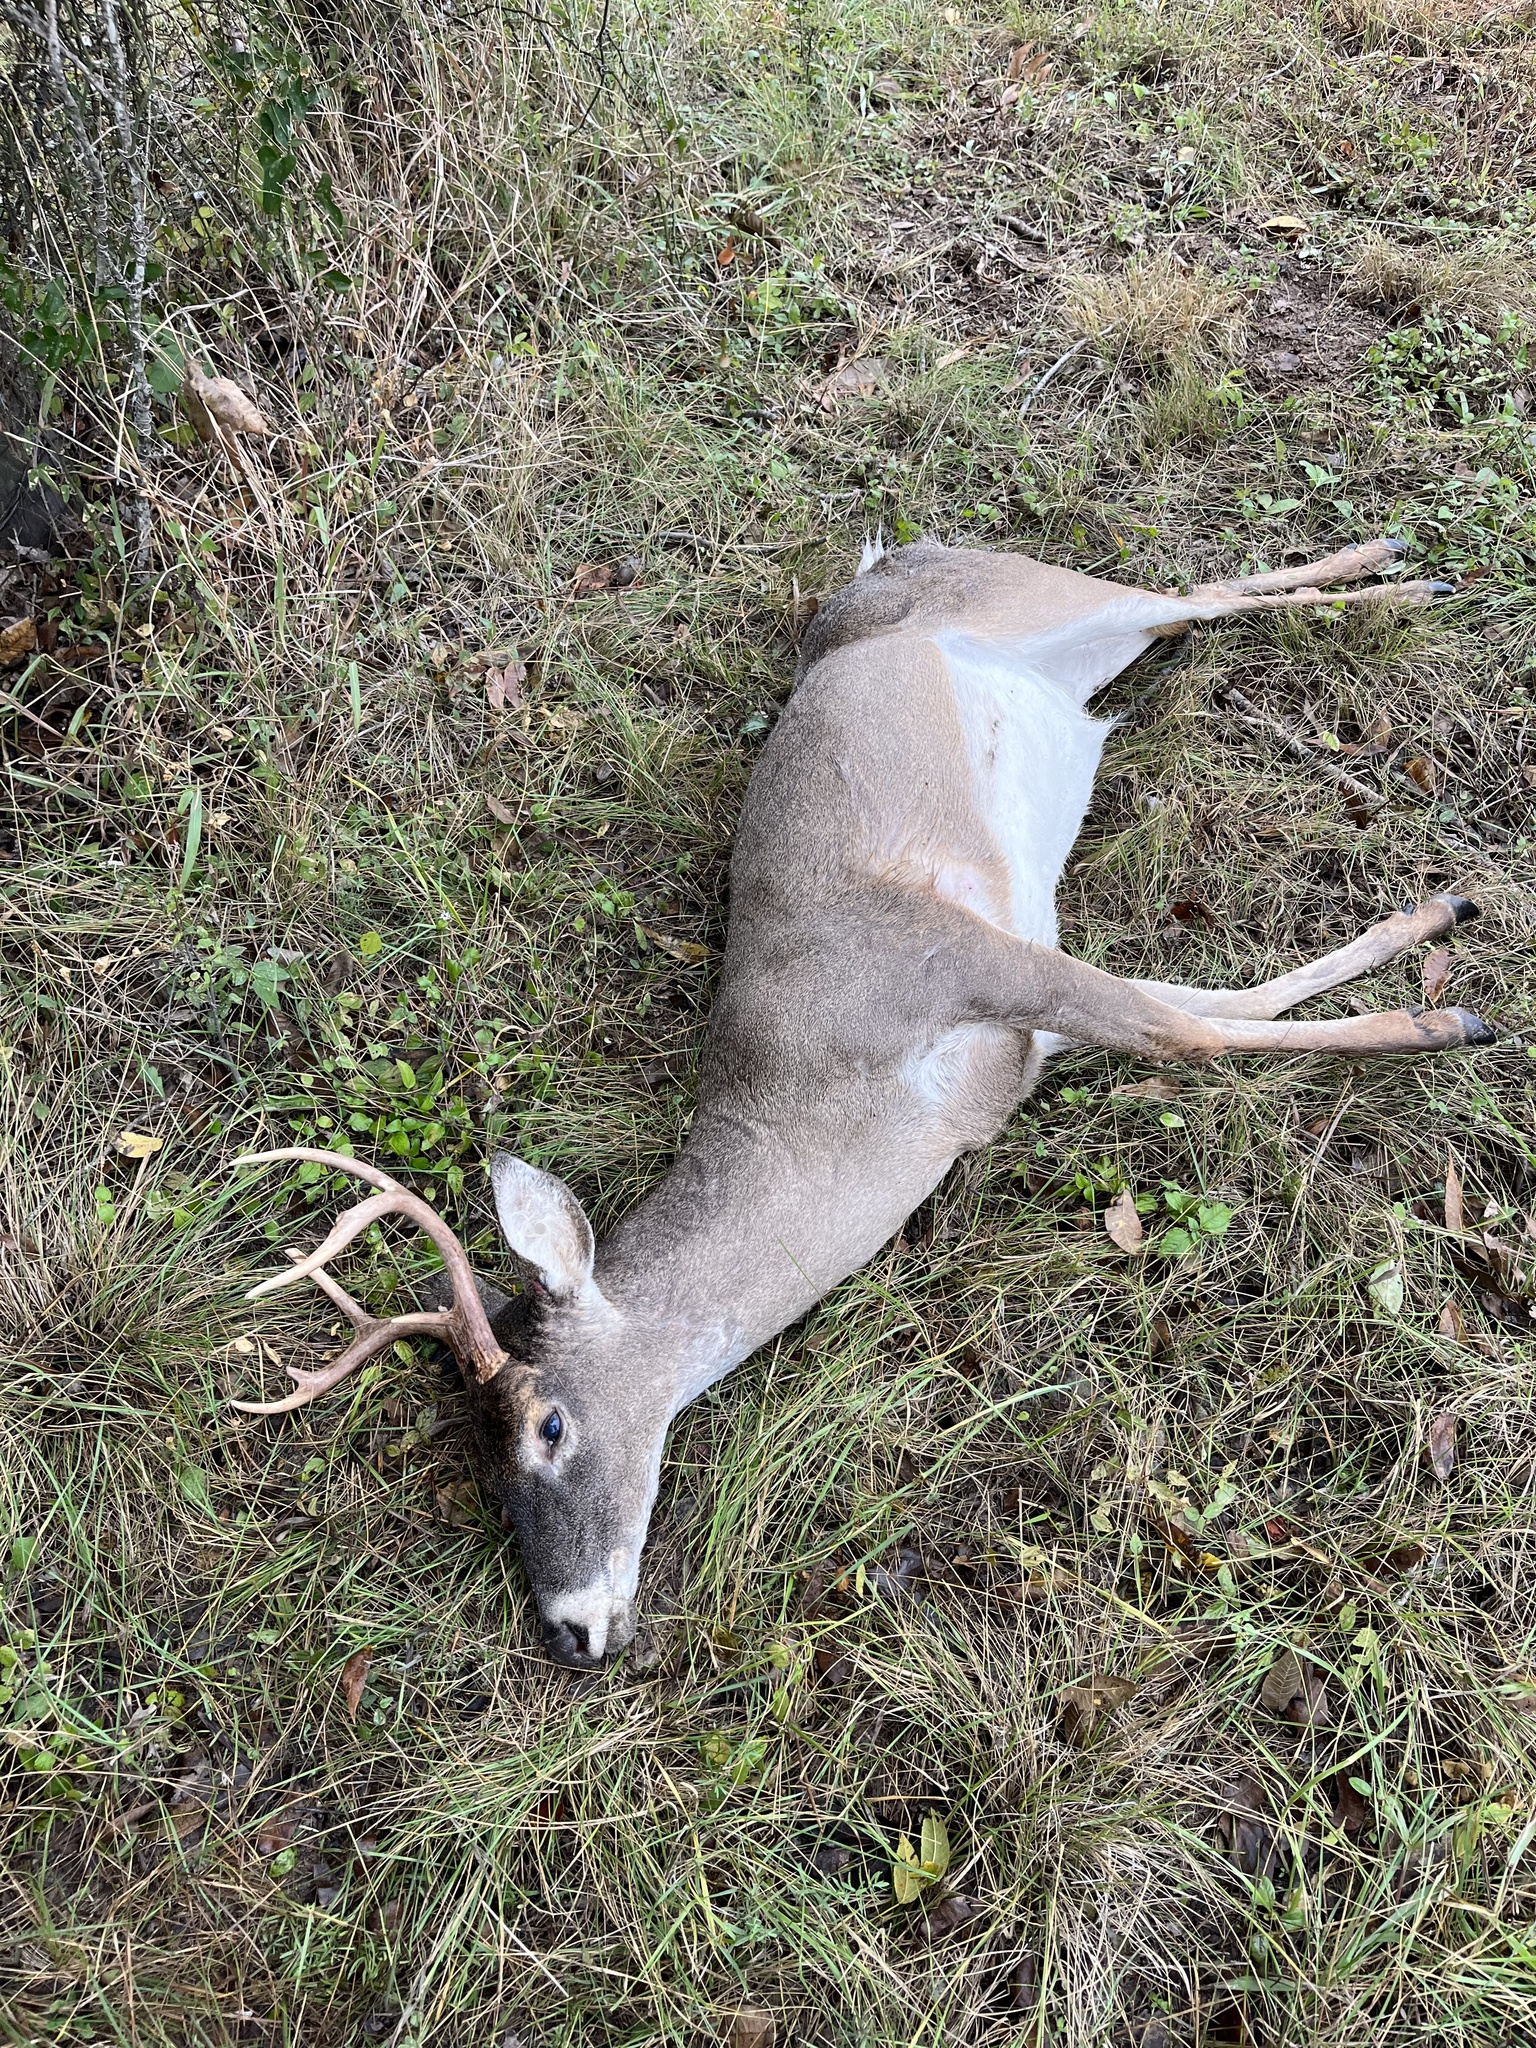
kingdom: Animalia
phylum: Chordata
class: Mammalia
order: Artiodactyla
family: Cervidae
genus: Odocoileus
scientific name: Odocoileus virginianus
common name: White-tailed deer
